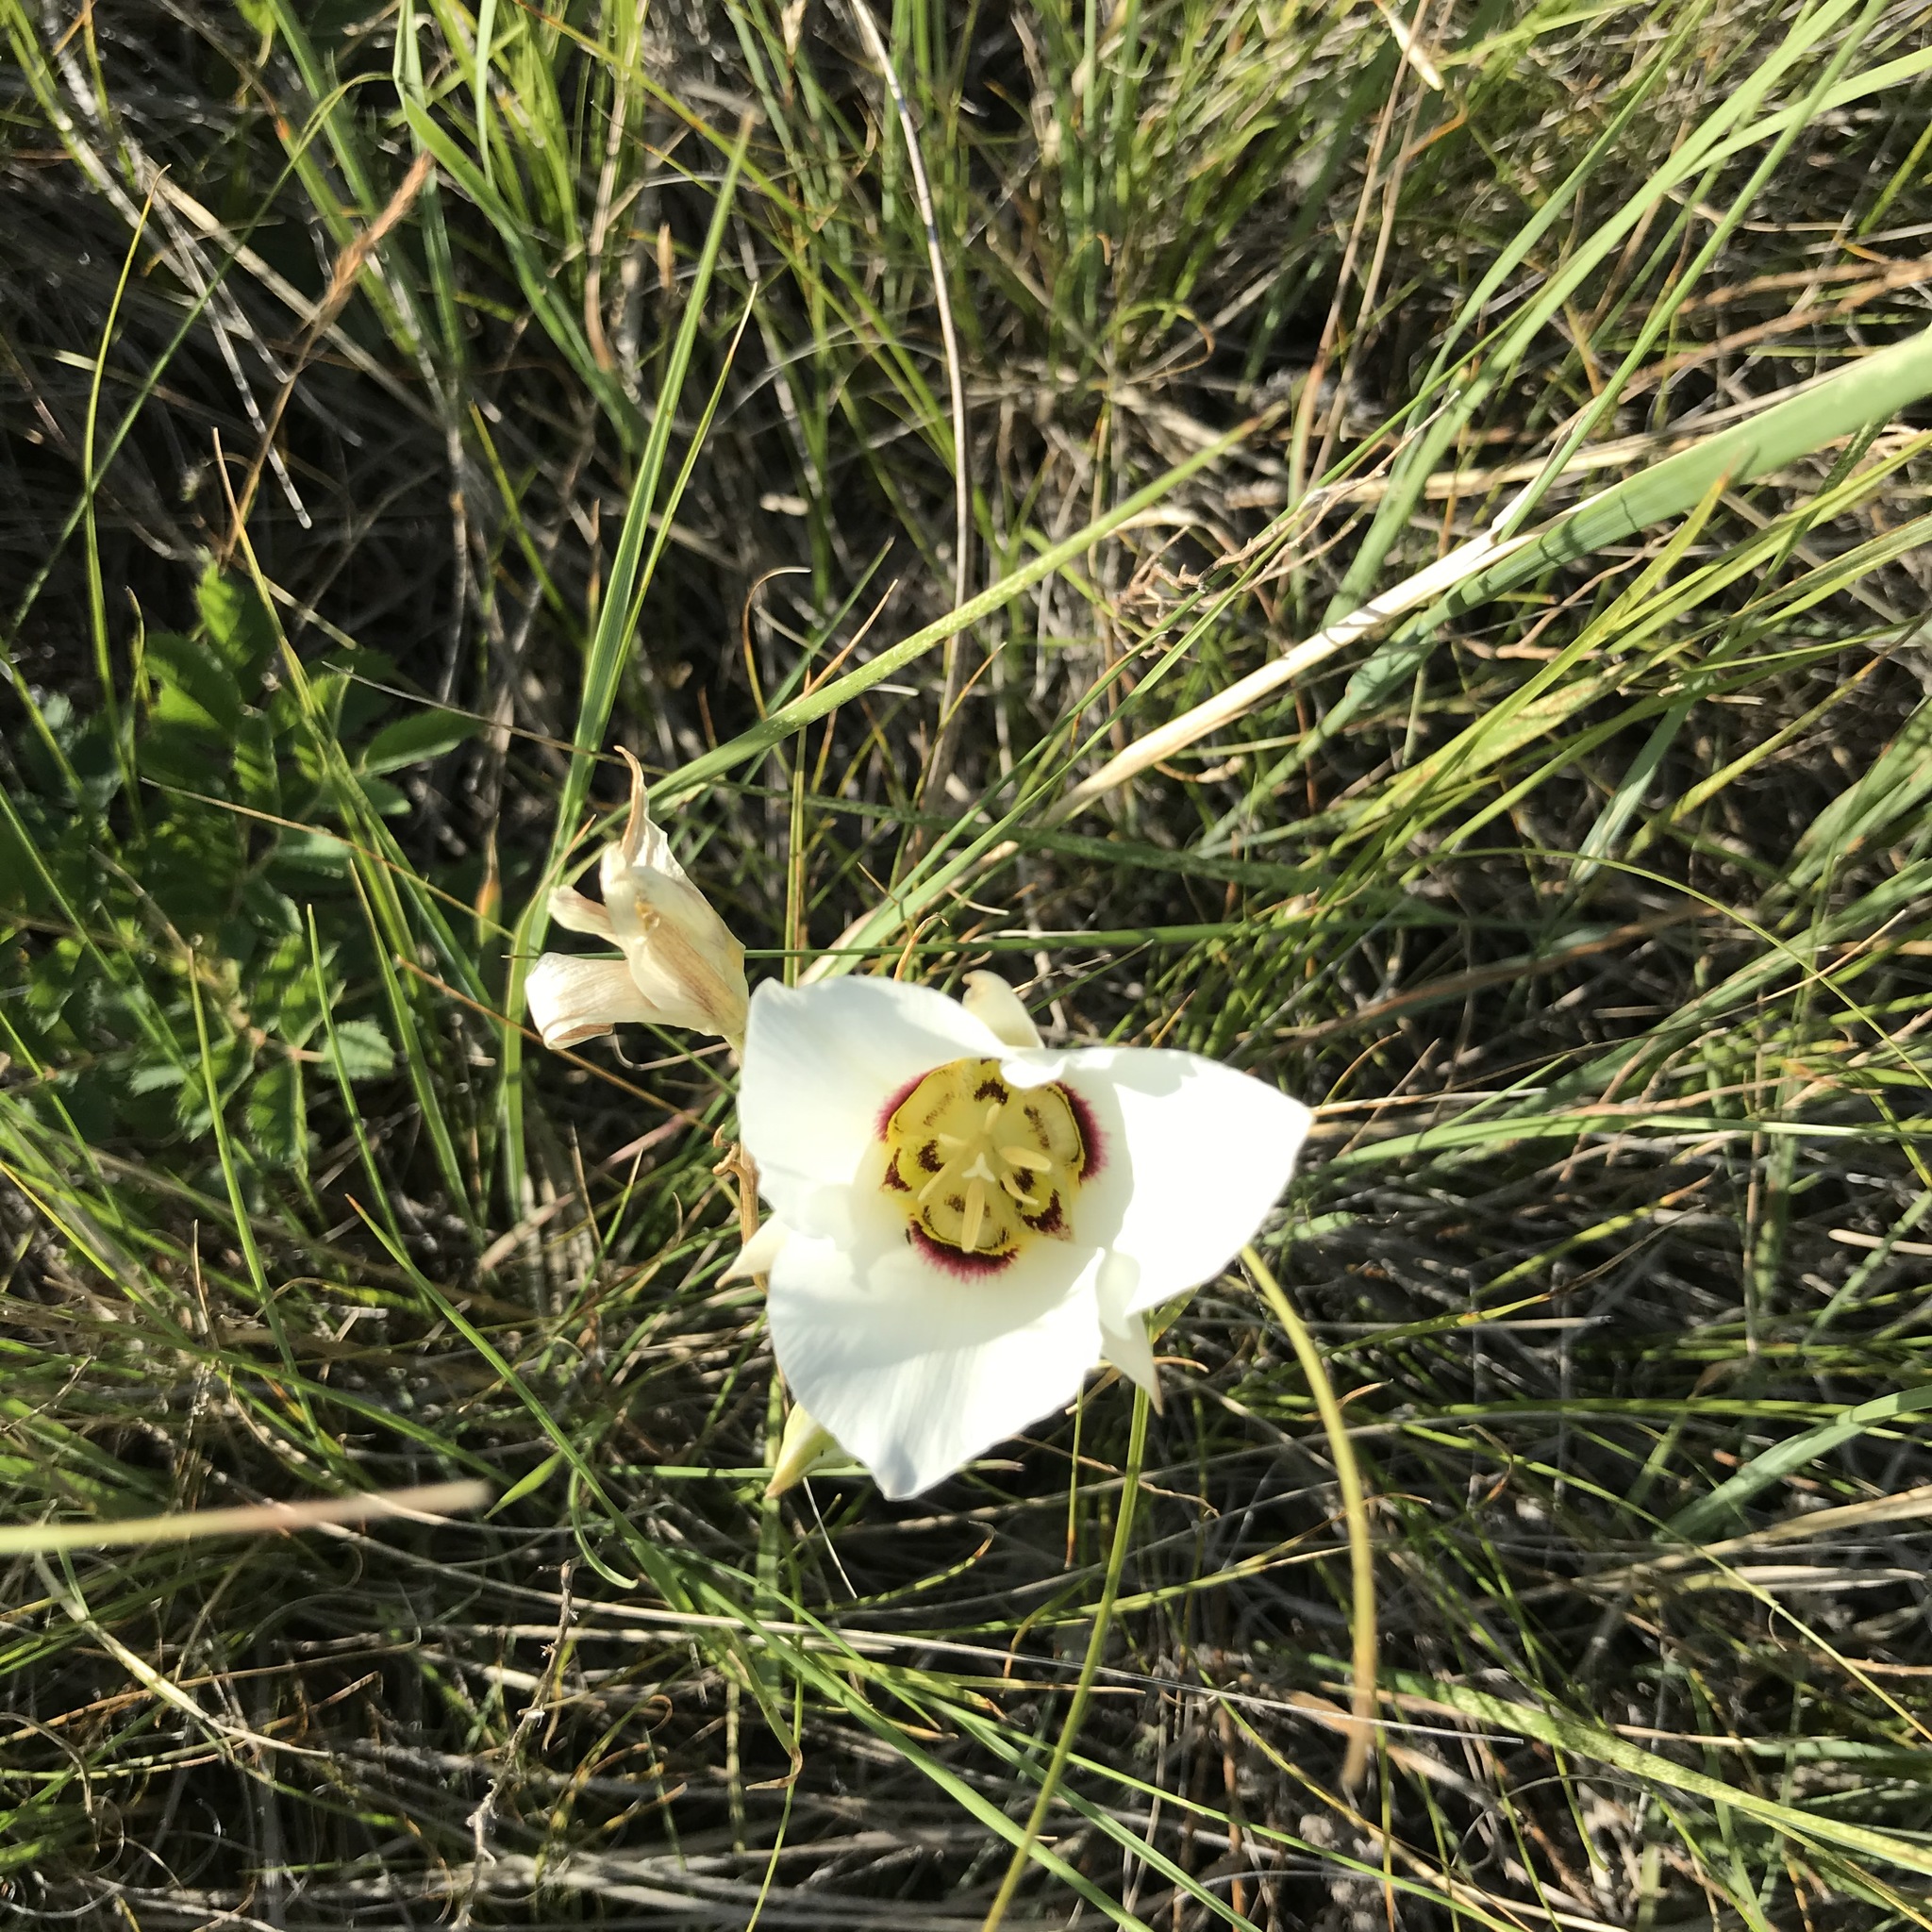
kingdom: Plantae
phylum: Tracheophyta
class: Liliopsida
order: Liliales
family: Liliaceae
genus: Calochortus
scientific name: Calochortus nuttallii
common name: Sego-lily
